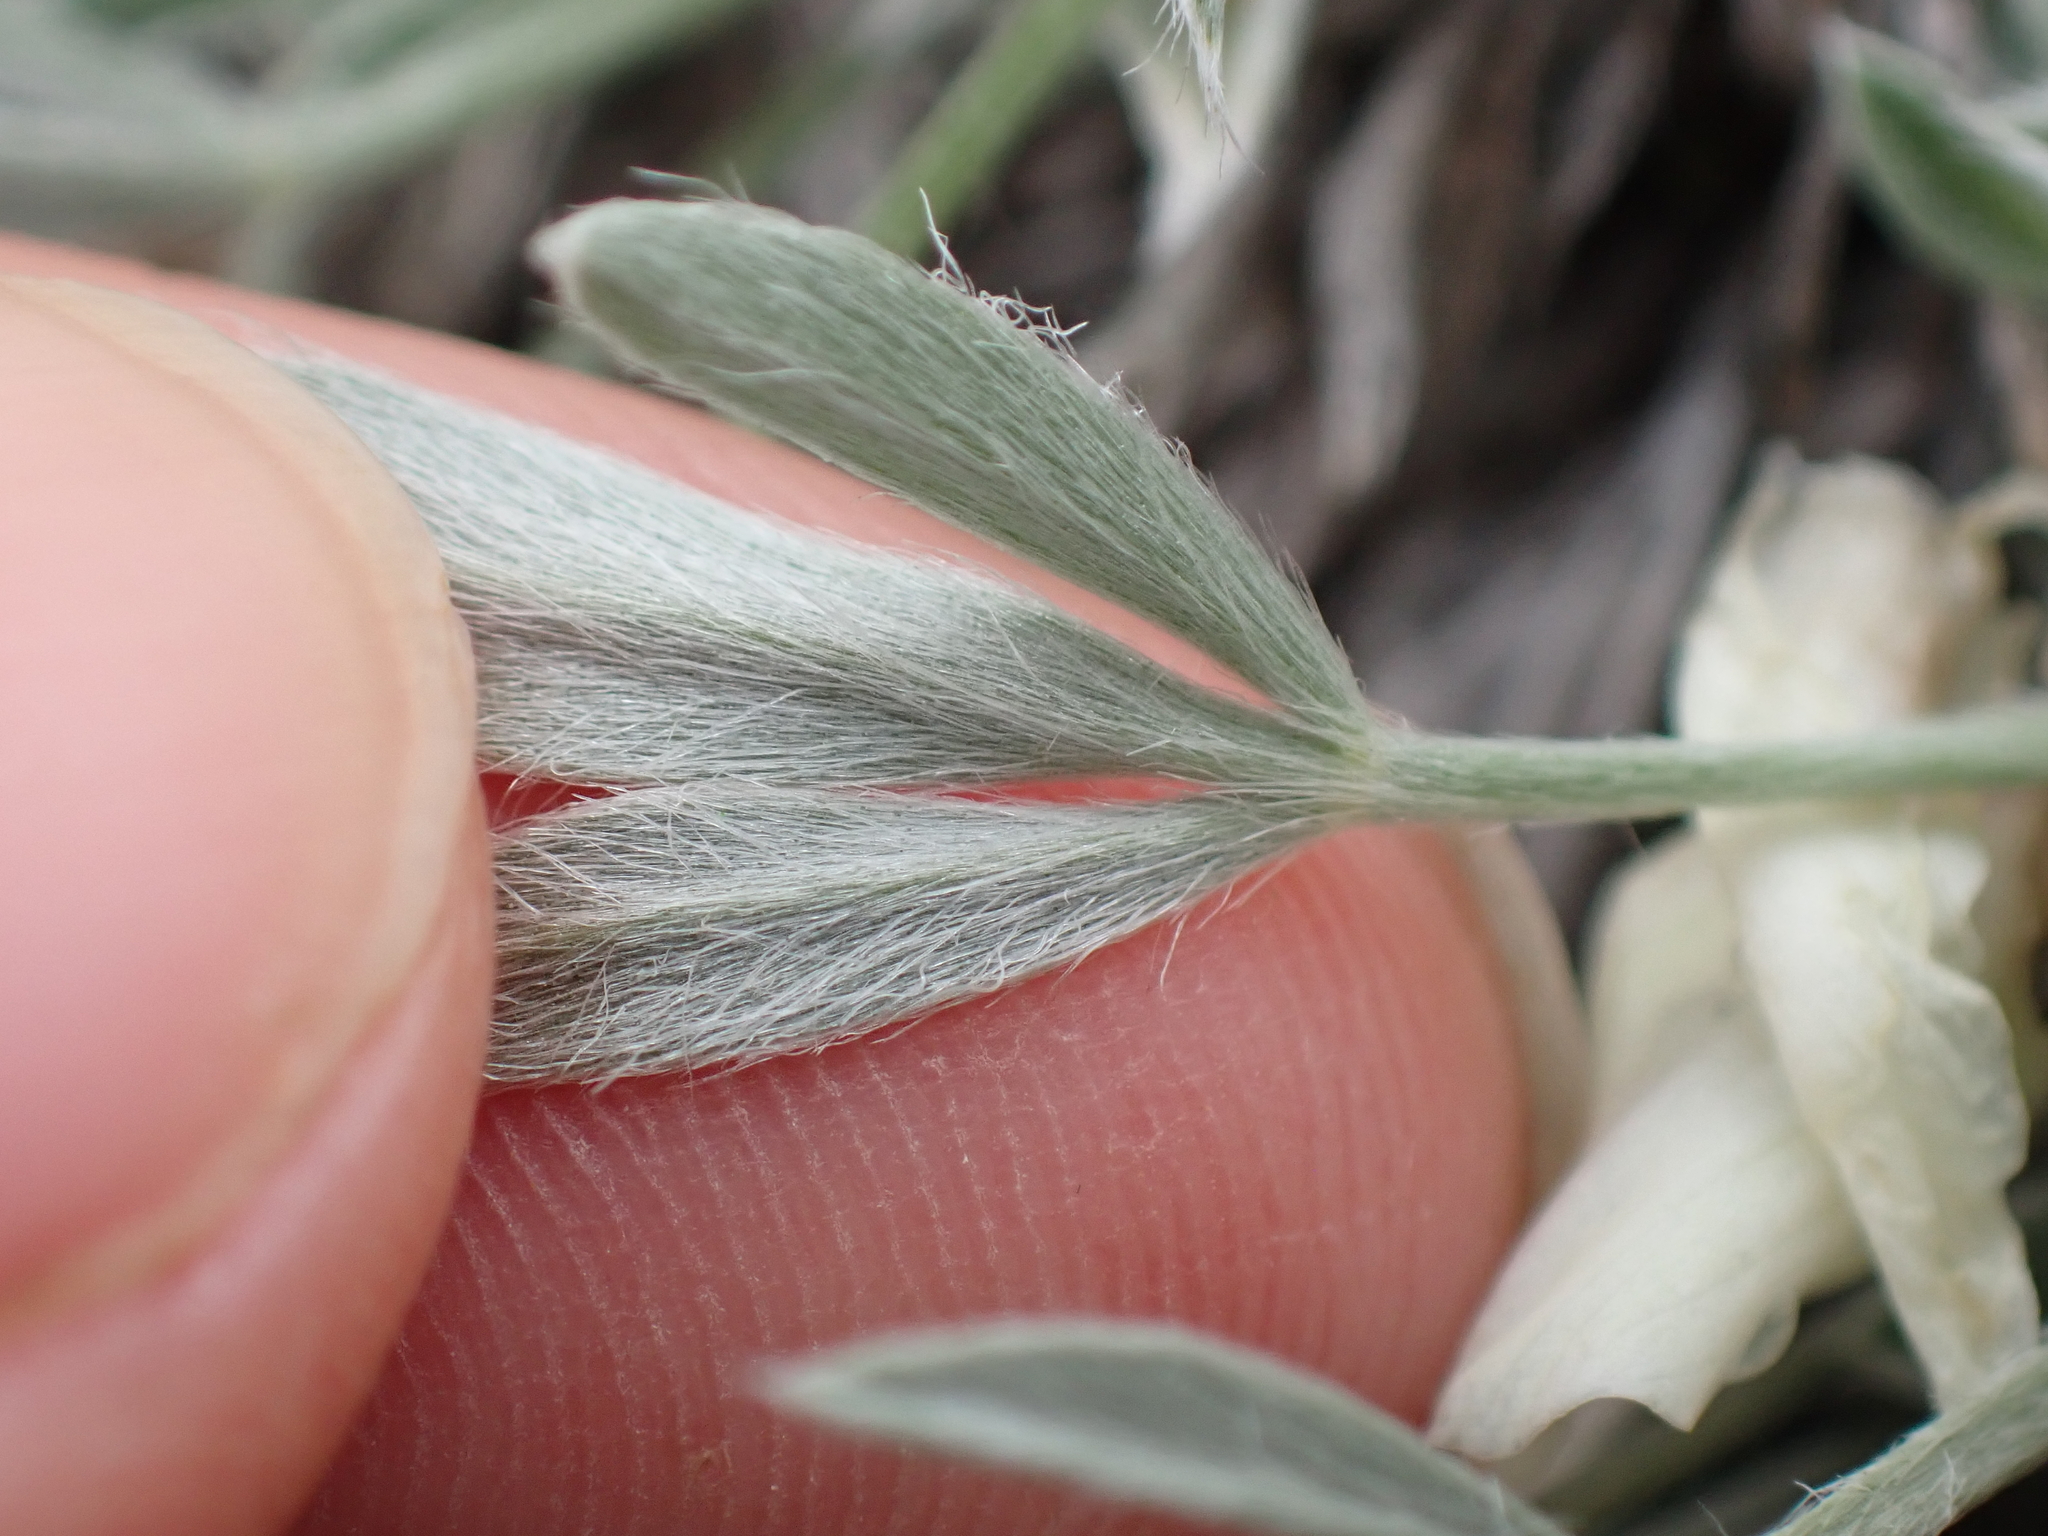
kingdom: Plantae
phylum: Tracheophyta
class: Magnoliopsida
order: Fabales
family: Fabaceae
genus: Astragalus
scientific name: Astragalus gilviflorus
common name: Cushion milk-vetch
